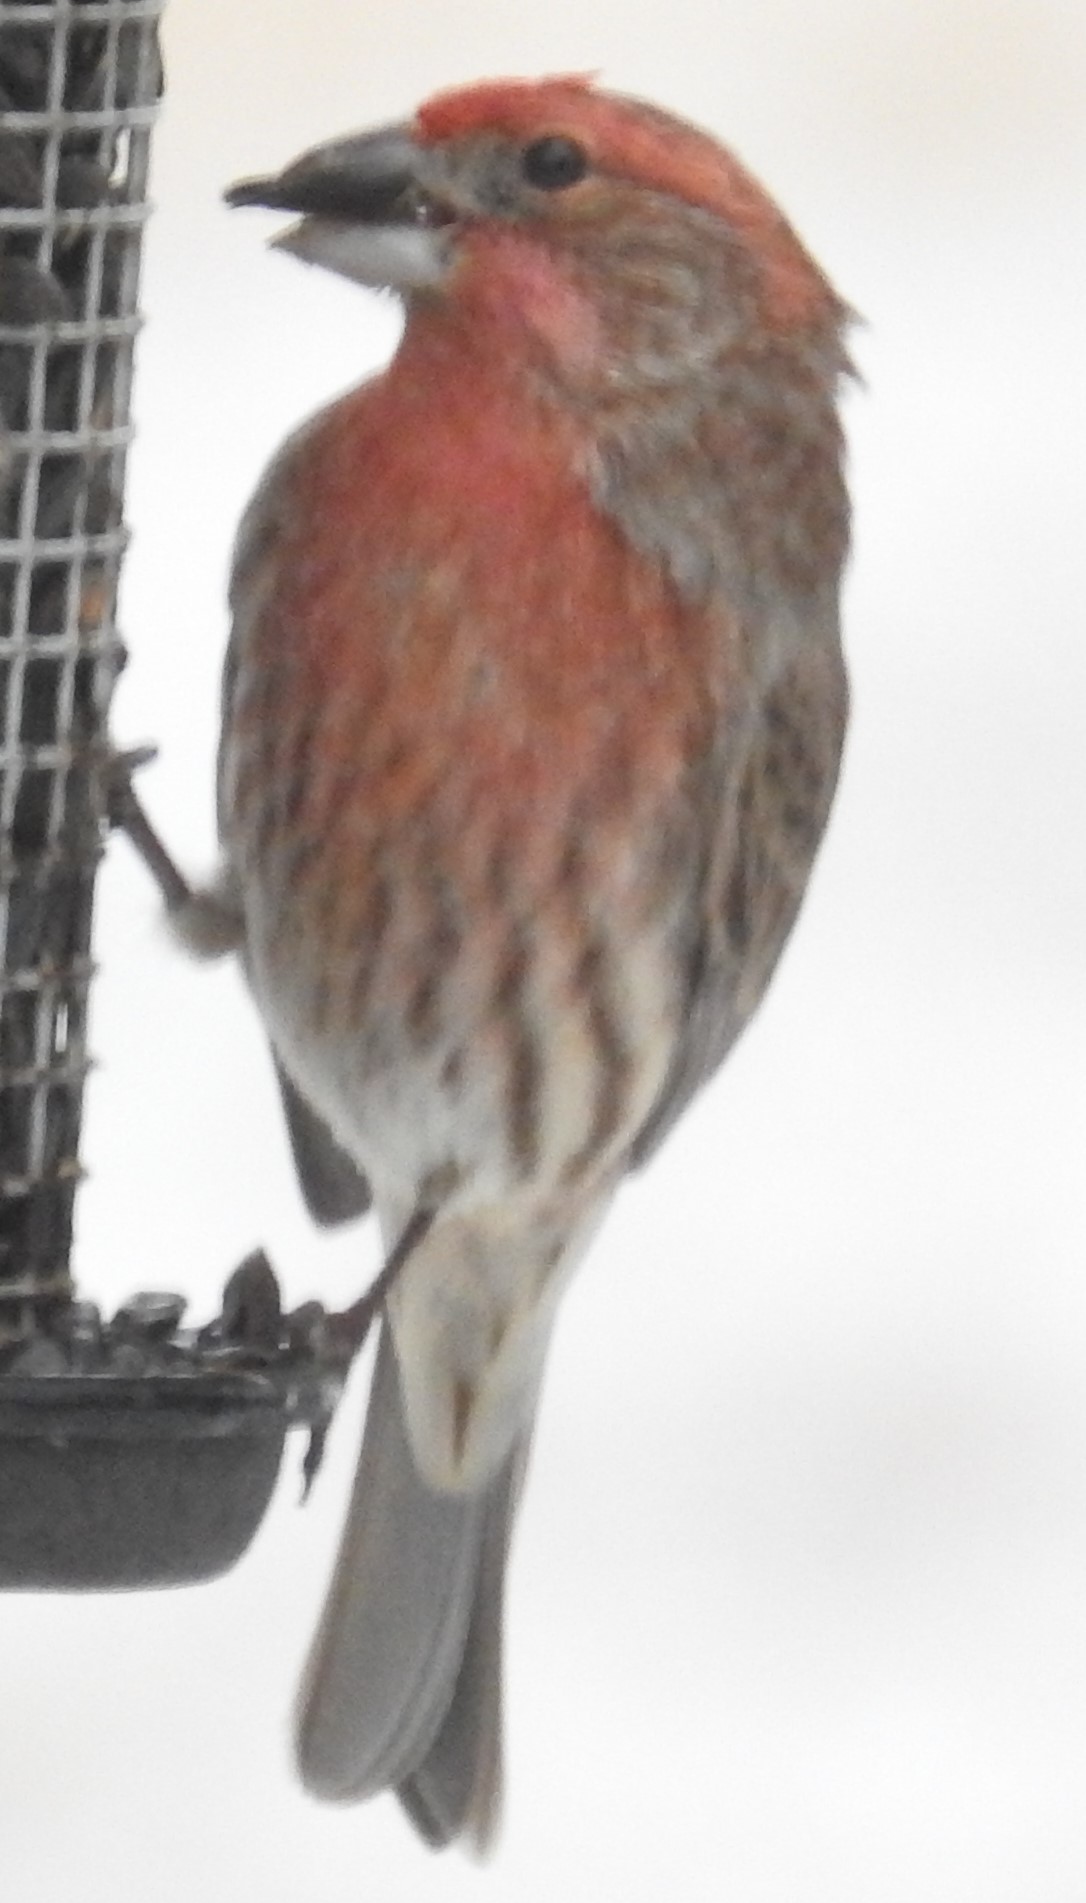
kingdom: Animalia
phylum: Chordata
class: Aves
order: Passeriformes
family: Fringillidae
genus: Haemorhous
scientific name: Haemorhous mexicanus
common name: House finch
